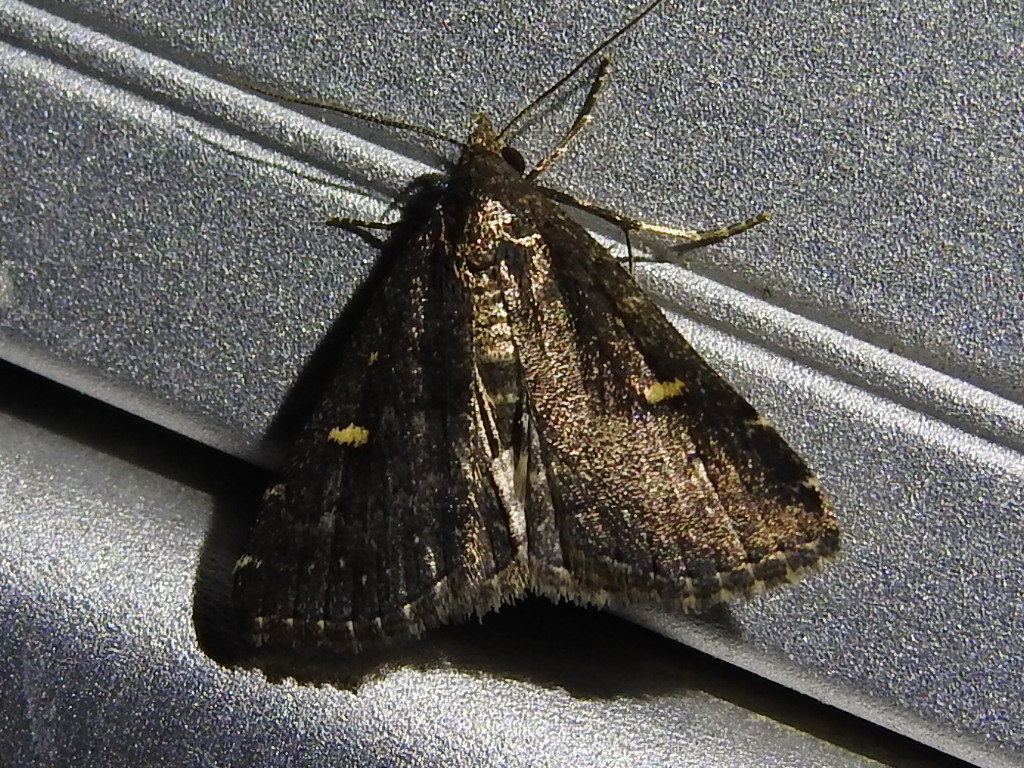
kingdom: Animalia
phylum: Arthropoda
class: Insecta
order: Lepidoptera
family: Erebidae
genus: Tetanolita
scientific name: Tetanolita mynesalis
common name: Smoky tetanolita moth
